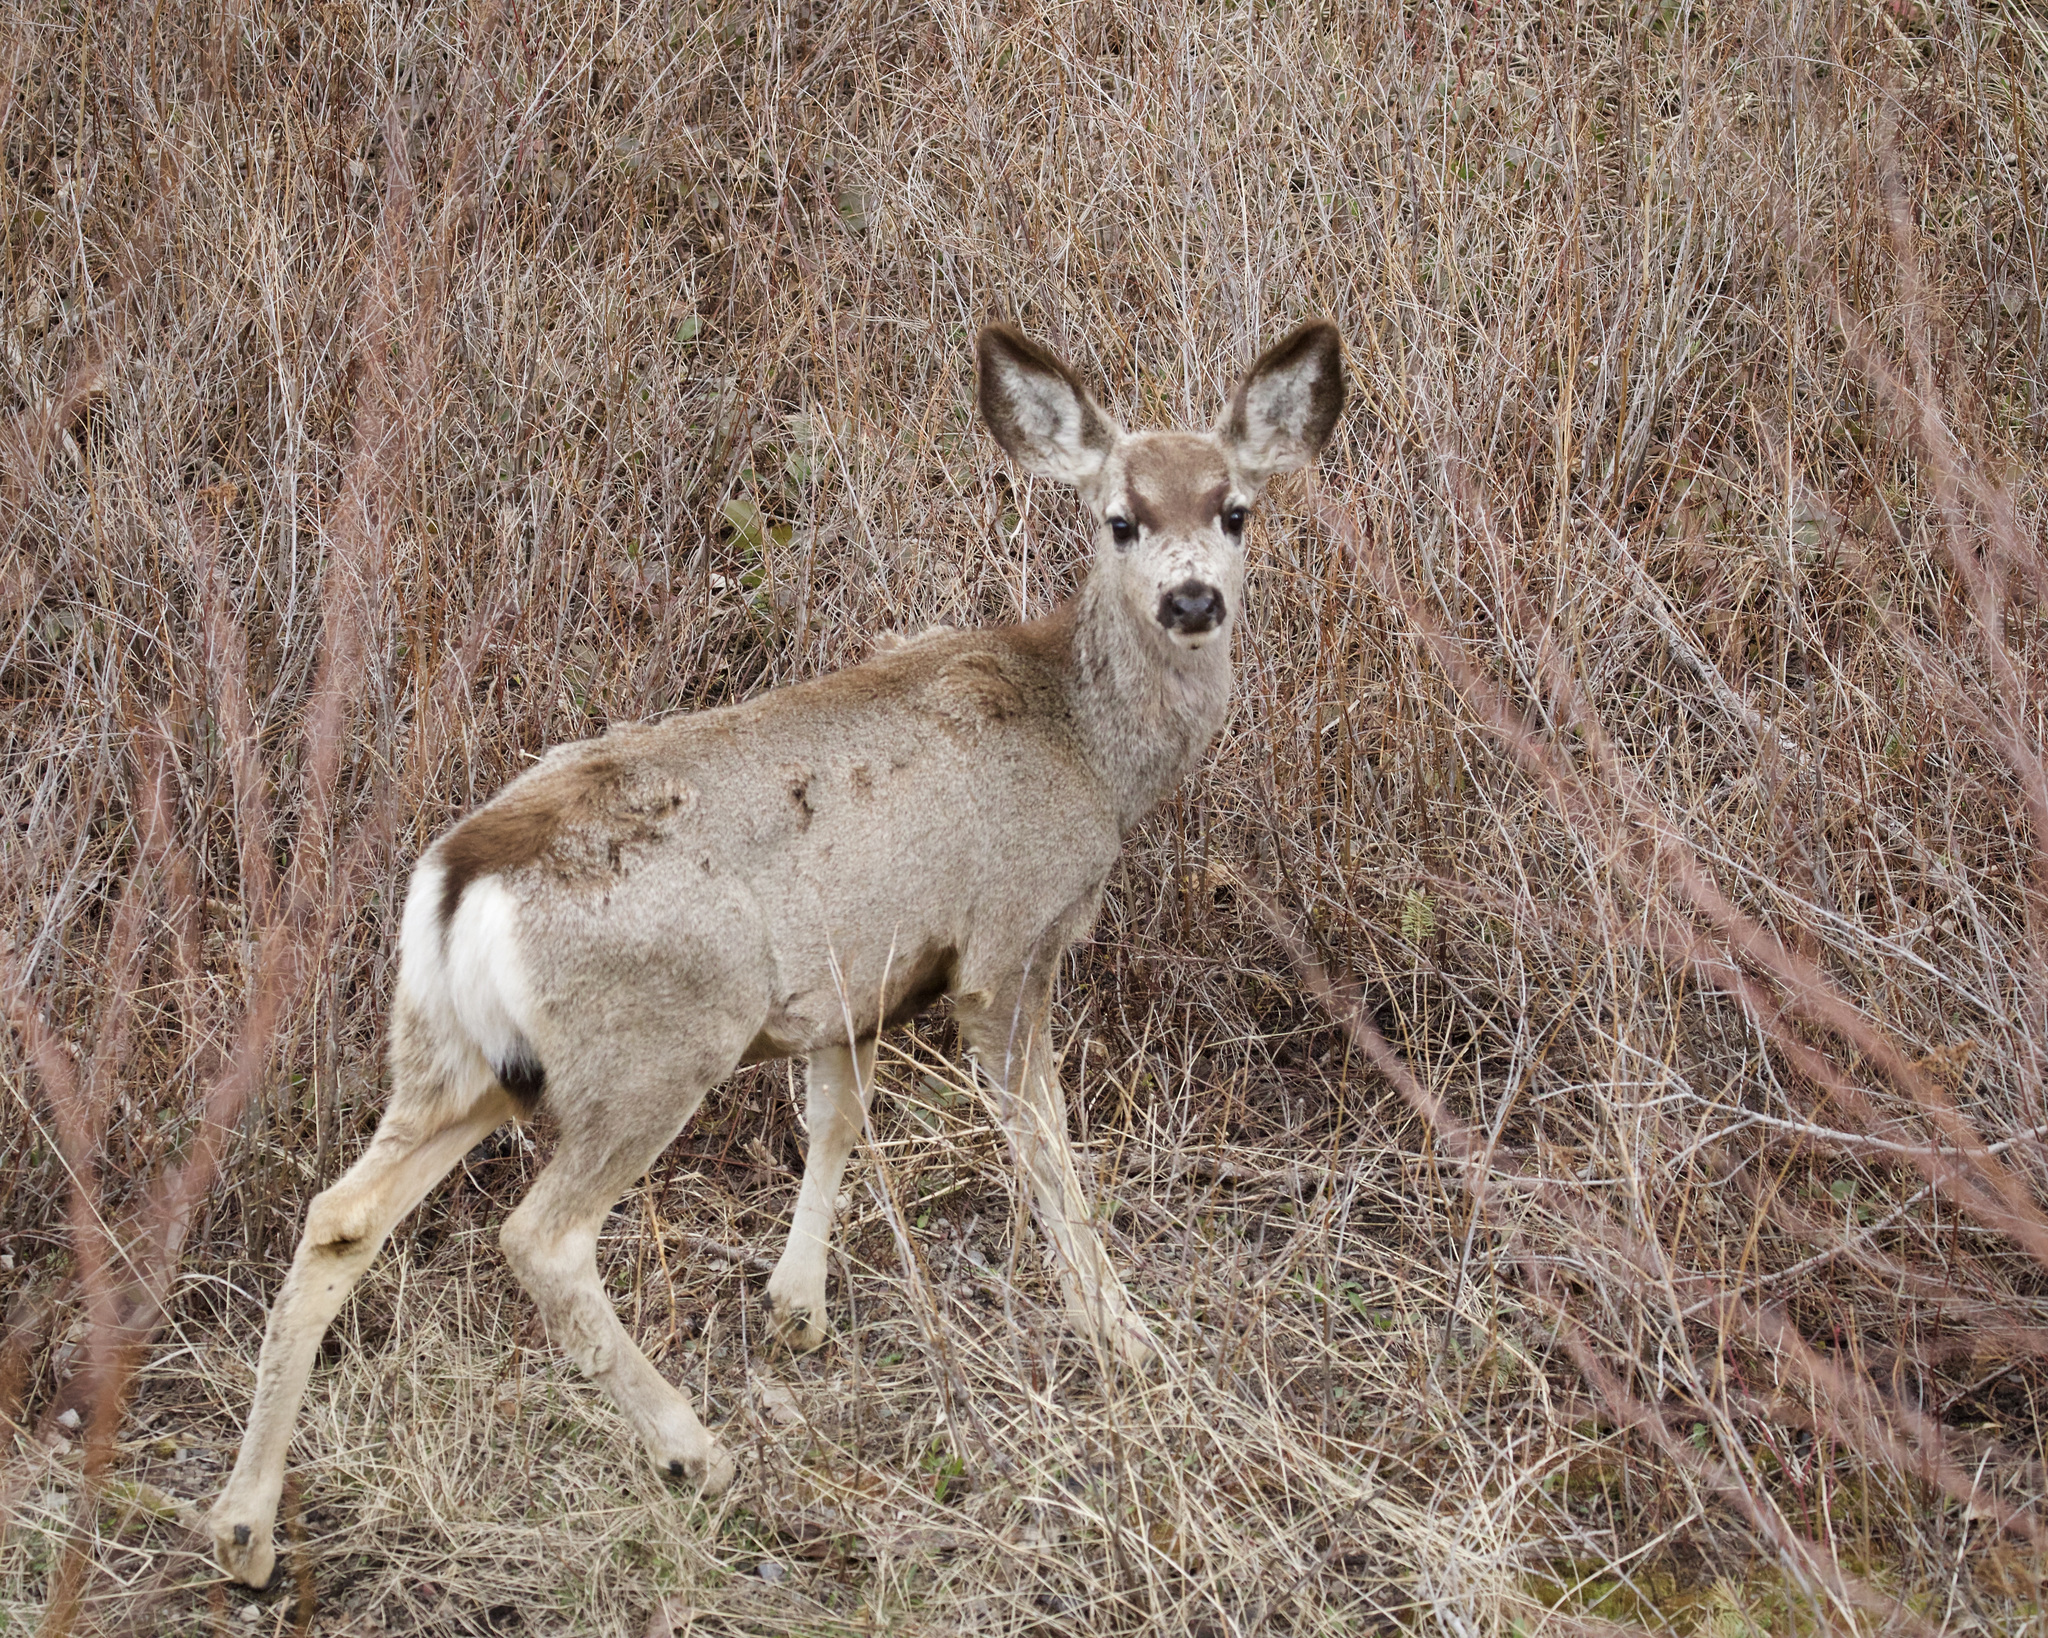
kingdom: Animalia
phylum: Chordata
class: Mammalia
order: Artiodactyla
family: Cervidae
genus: Odocoileus
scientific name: Odocoileus hemionus
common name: Mule deer
